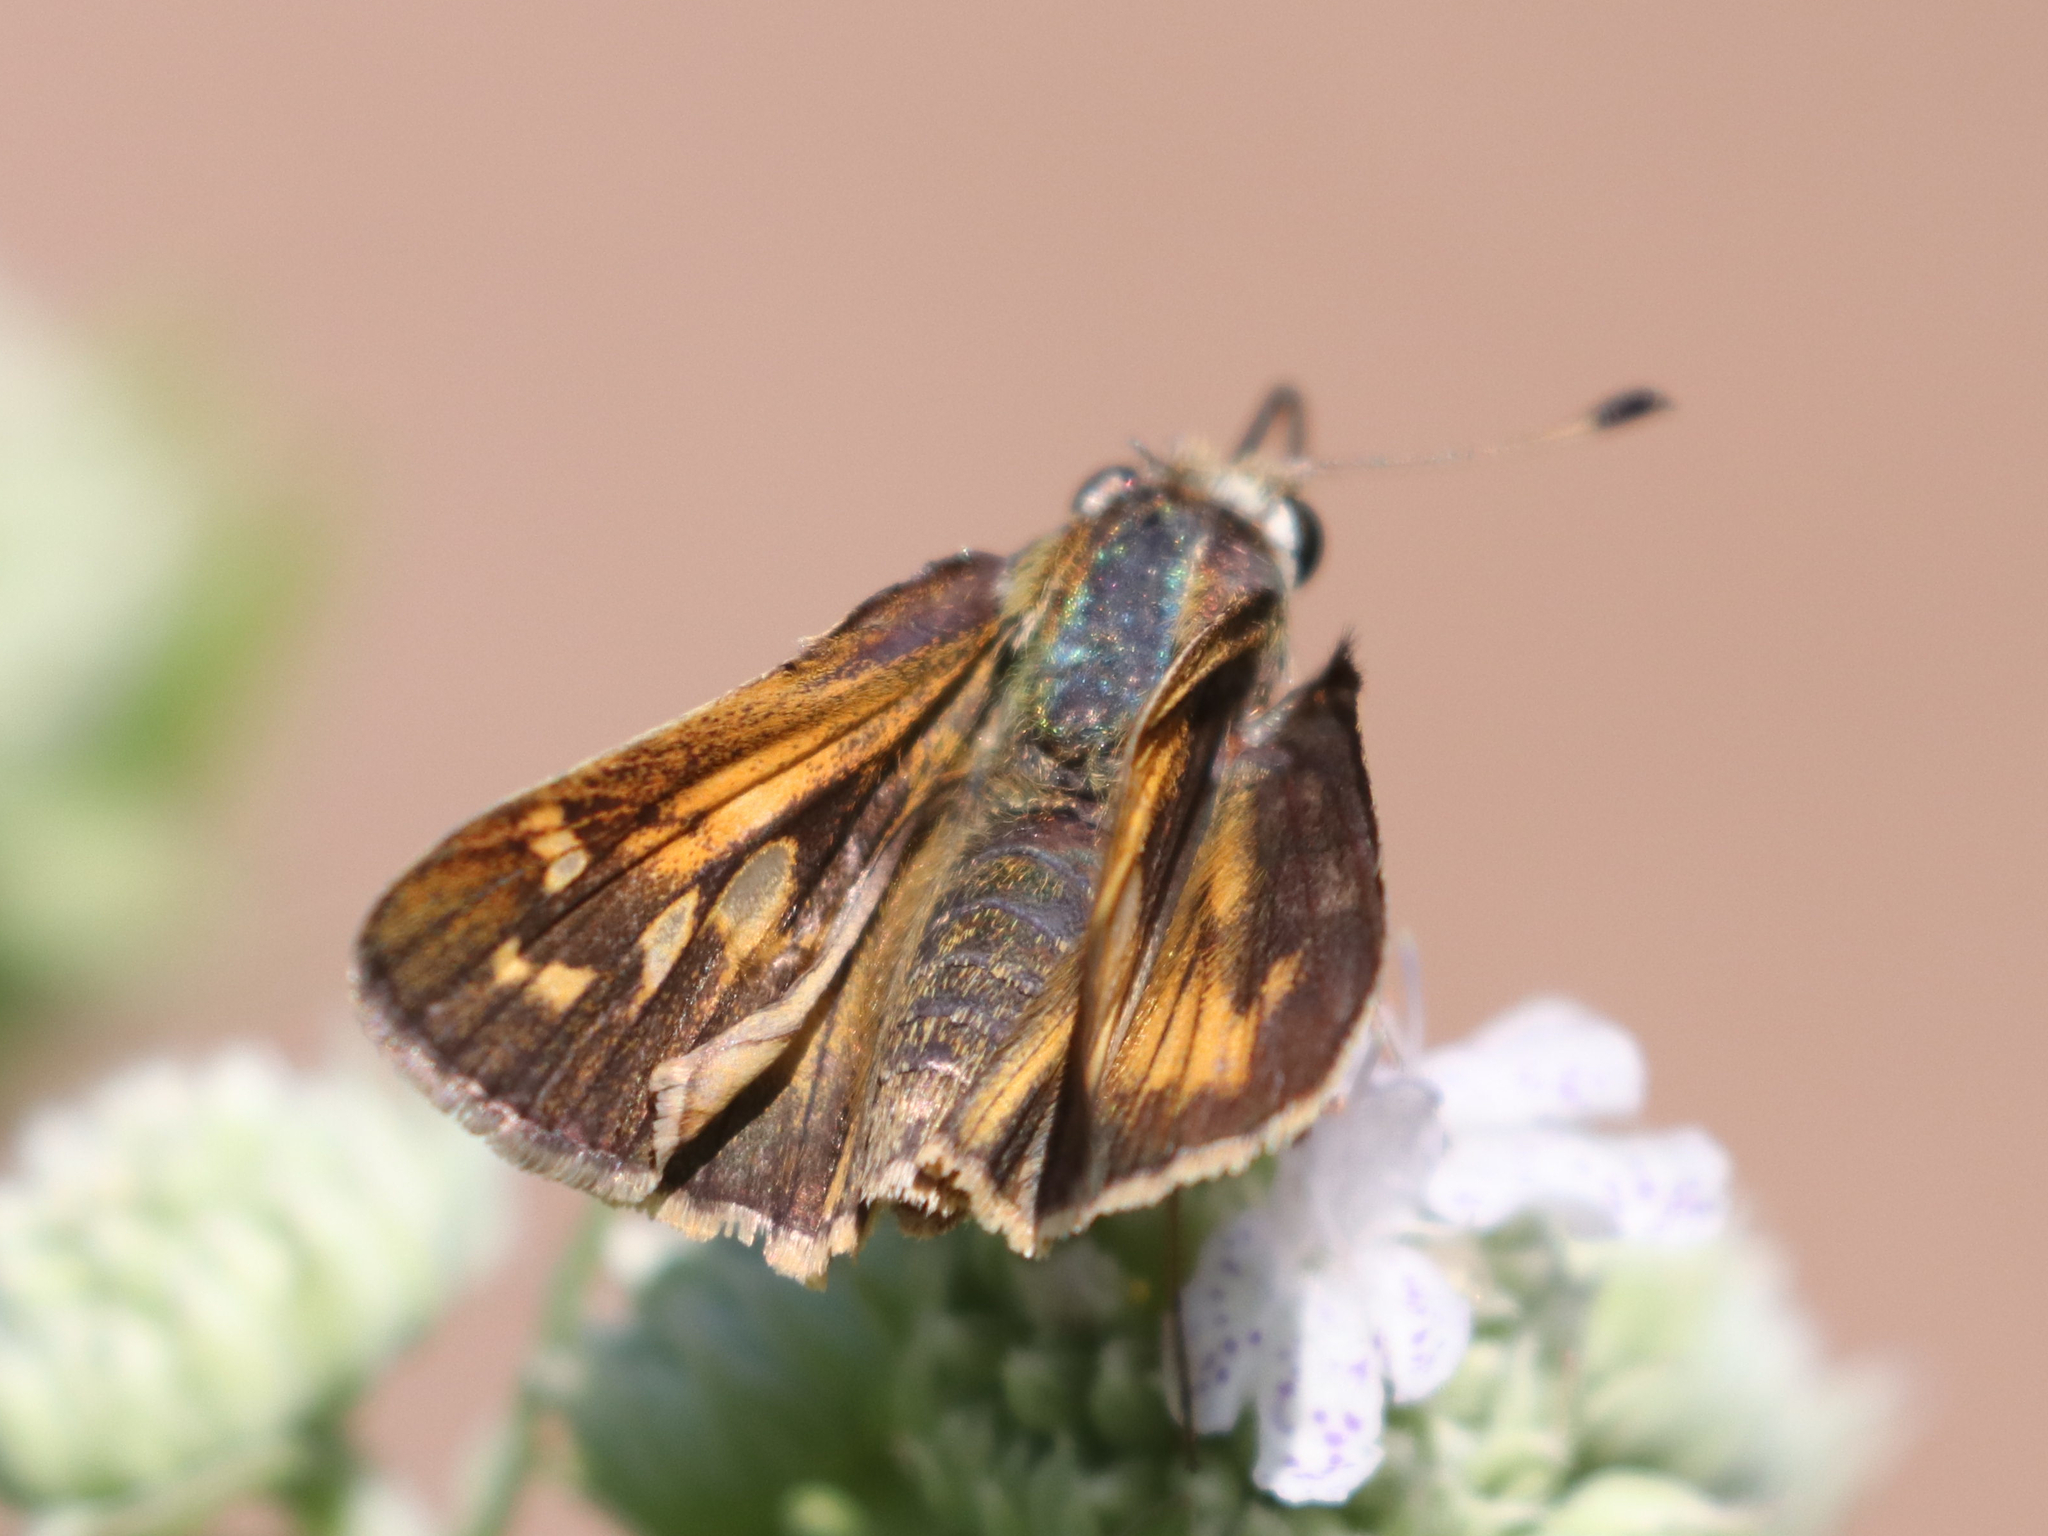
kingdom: Animalia
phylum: Arthropoda
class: Insecta
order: Lepidoptera
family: Hesperiidae
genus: Atalopedes
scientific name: Atalopedes
